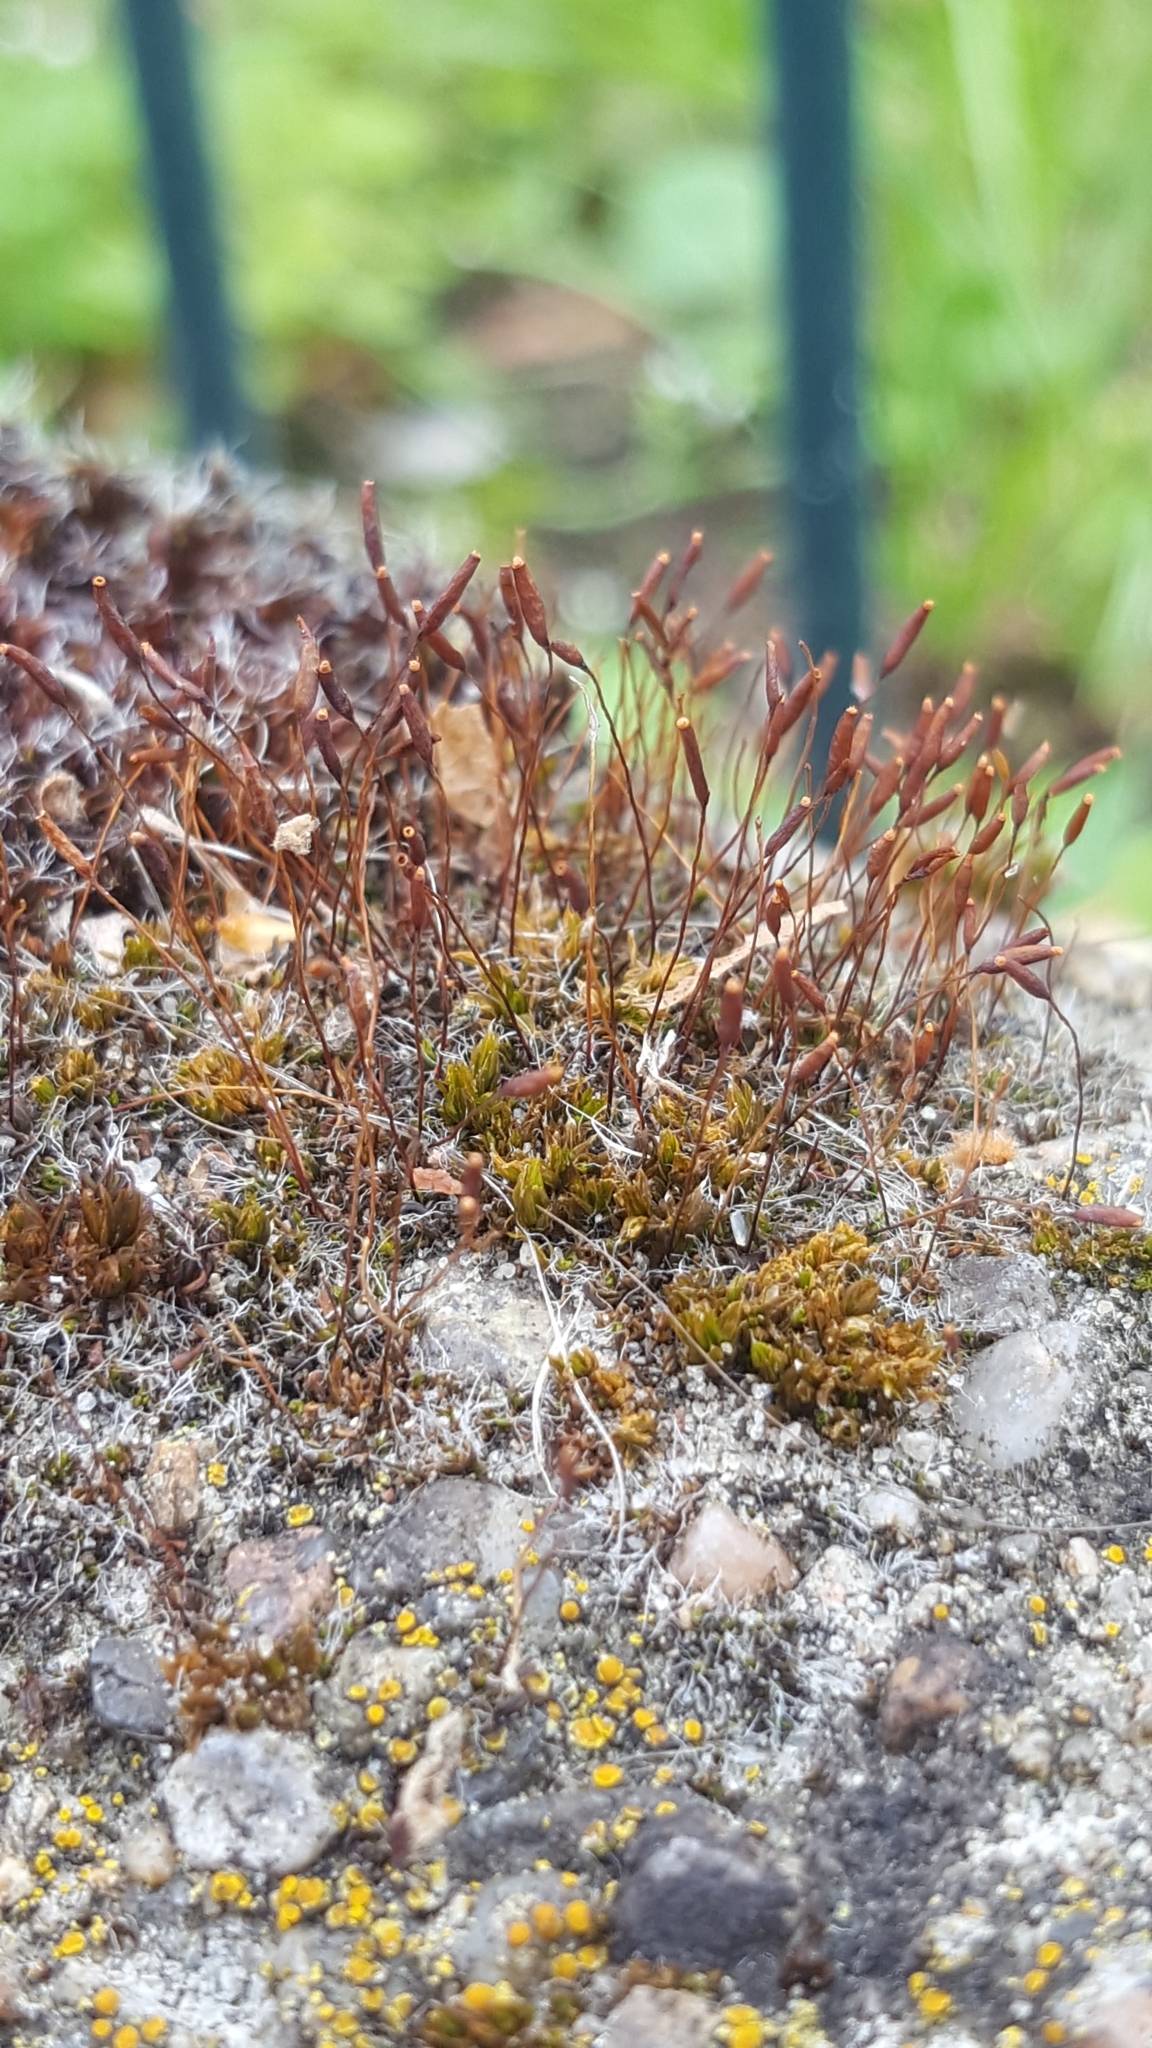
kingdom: Plantae
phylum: Bryophyta
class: Bryopsida
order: Pottiales
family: Pottiaceae
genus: Tortula
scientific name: Tortula muralis
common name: Wall screw-moss
